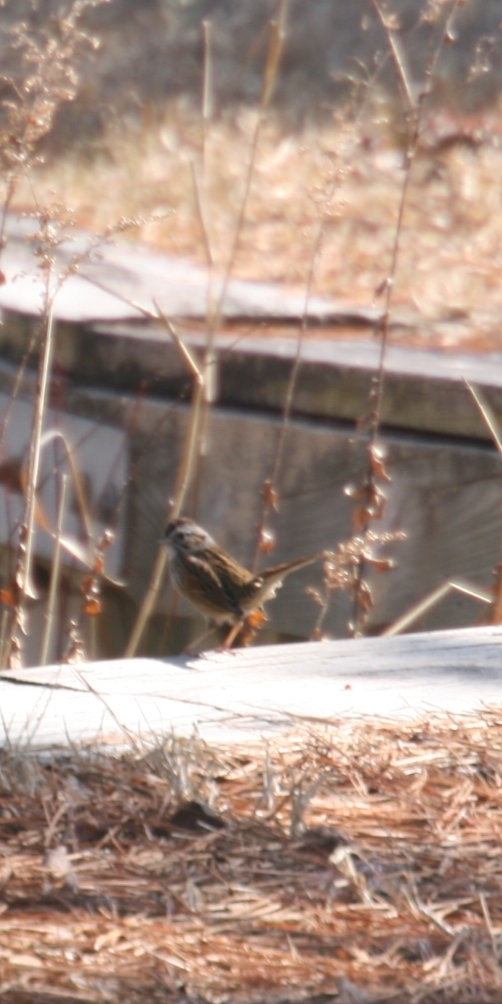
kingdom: Animalia
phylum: Chordata
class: Aves
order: Passeriformes
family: Passerellidae
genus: Melospiza
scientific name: Melospiza georgiana
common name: Swamp sparrow
